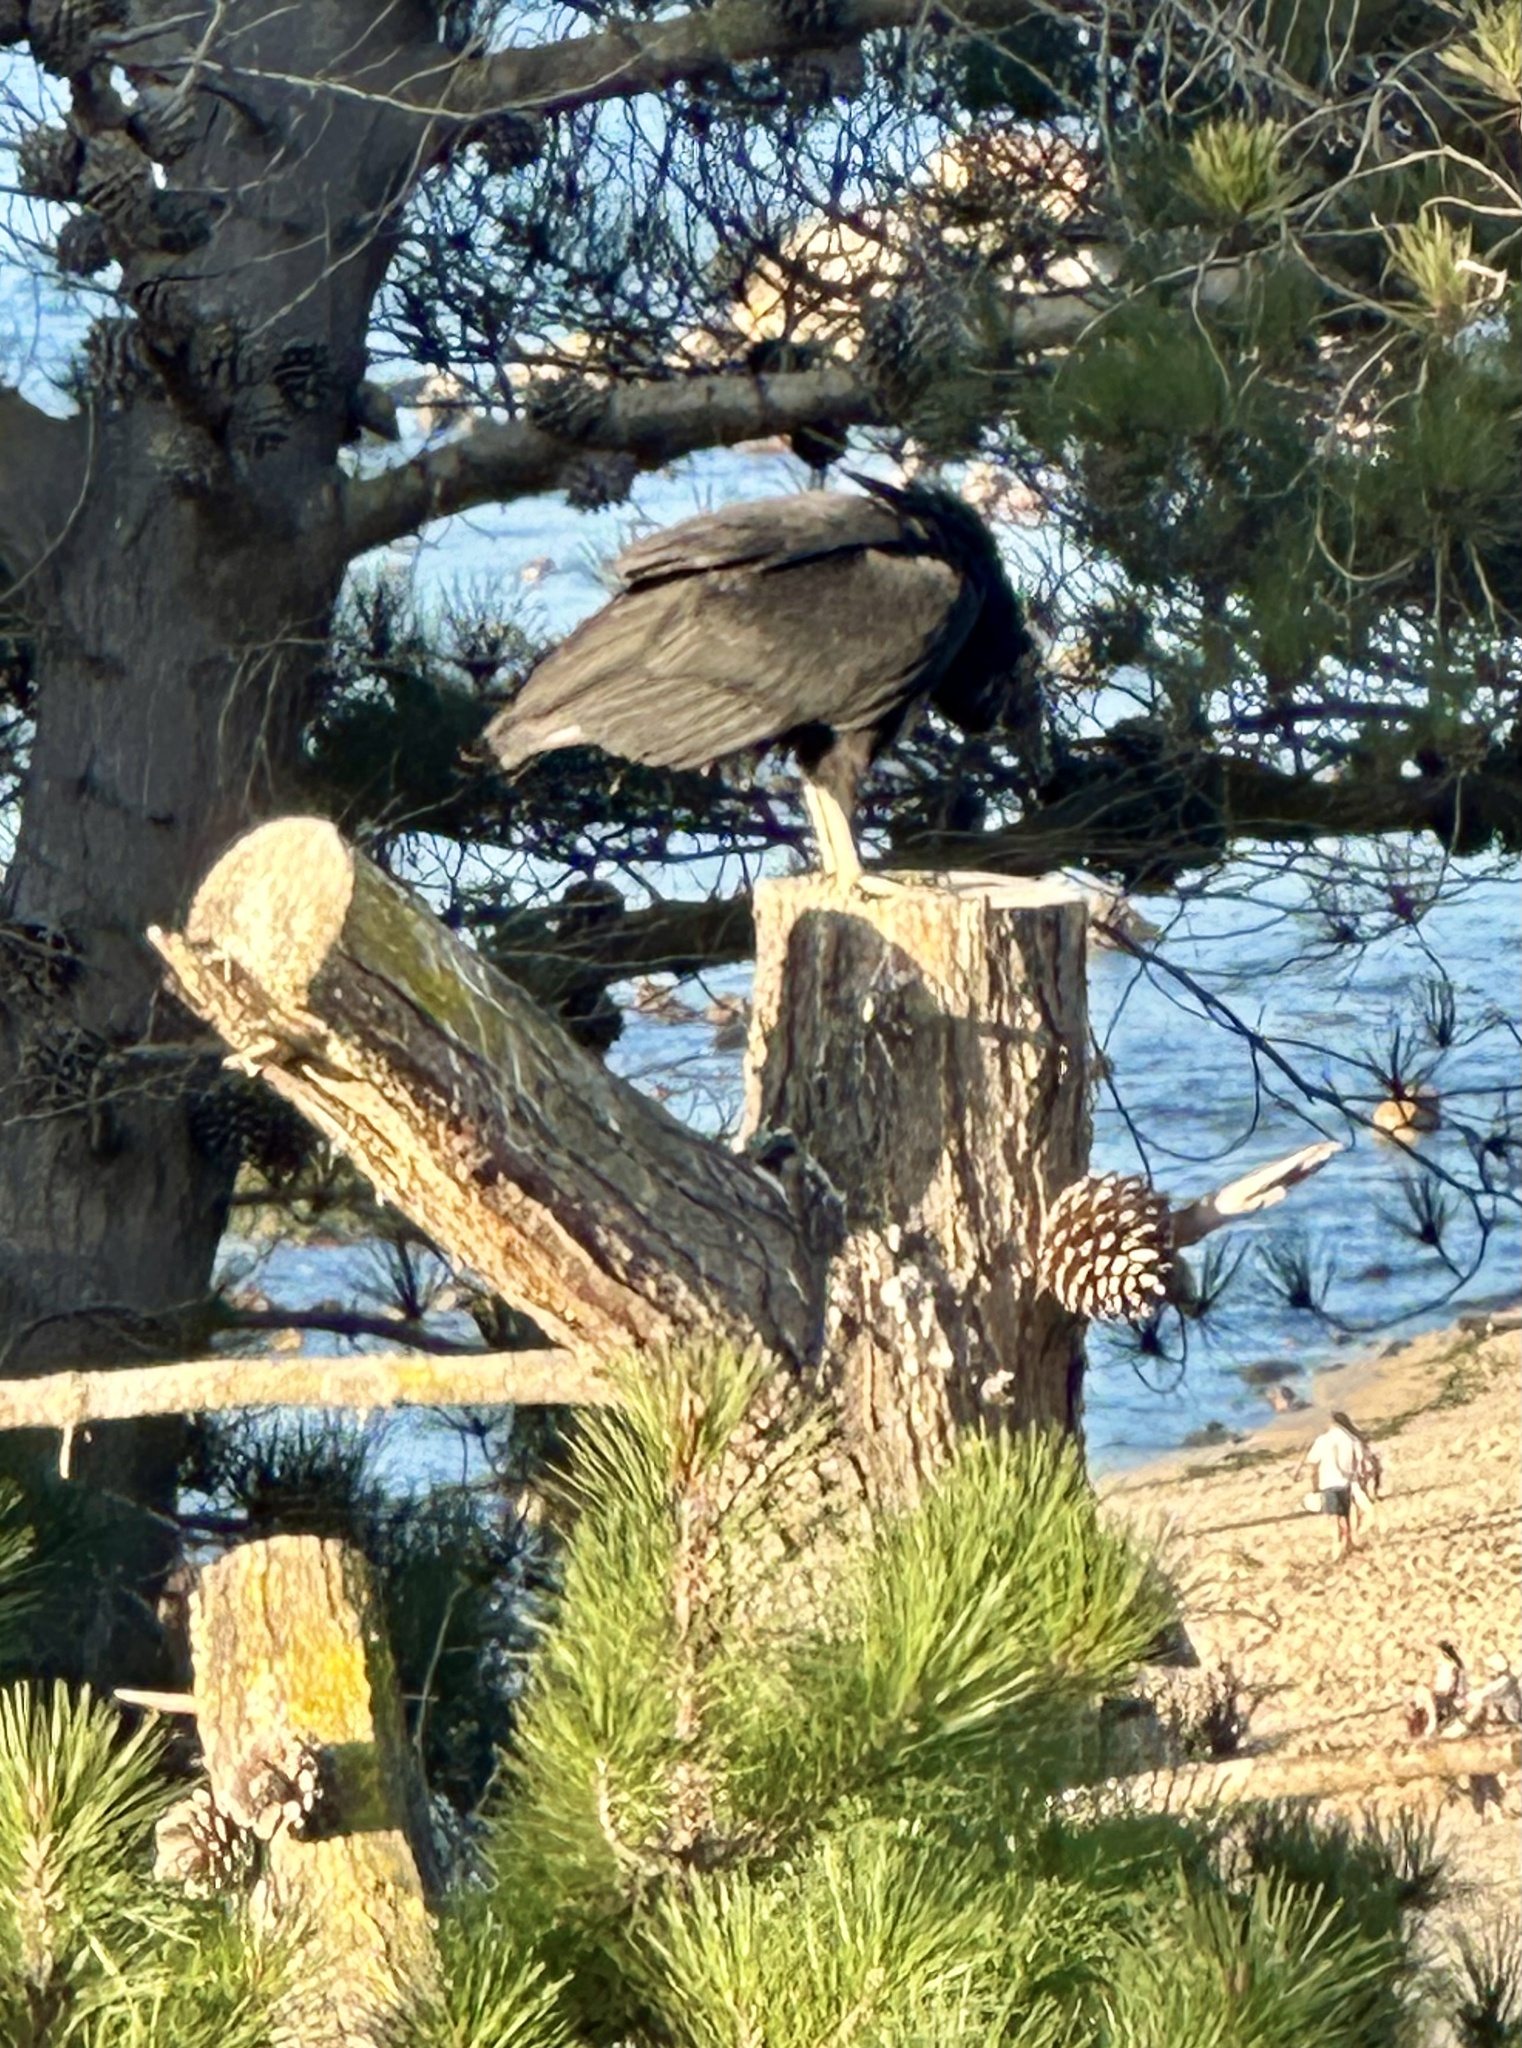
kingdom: Animalia
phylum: Chordata
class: Aves
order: Accipitriformes
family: Cathartidae
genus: Coragyps
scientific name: Coragyps atratus
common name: Black vulture
